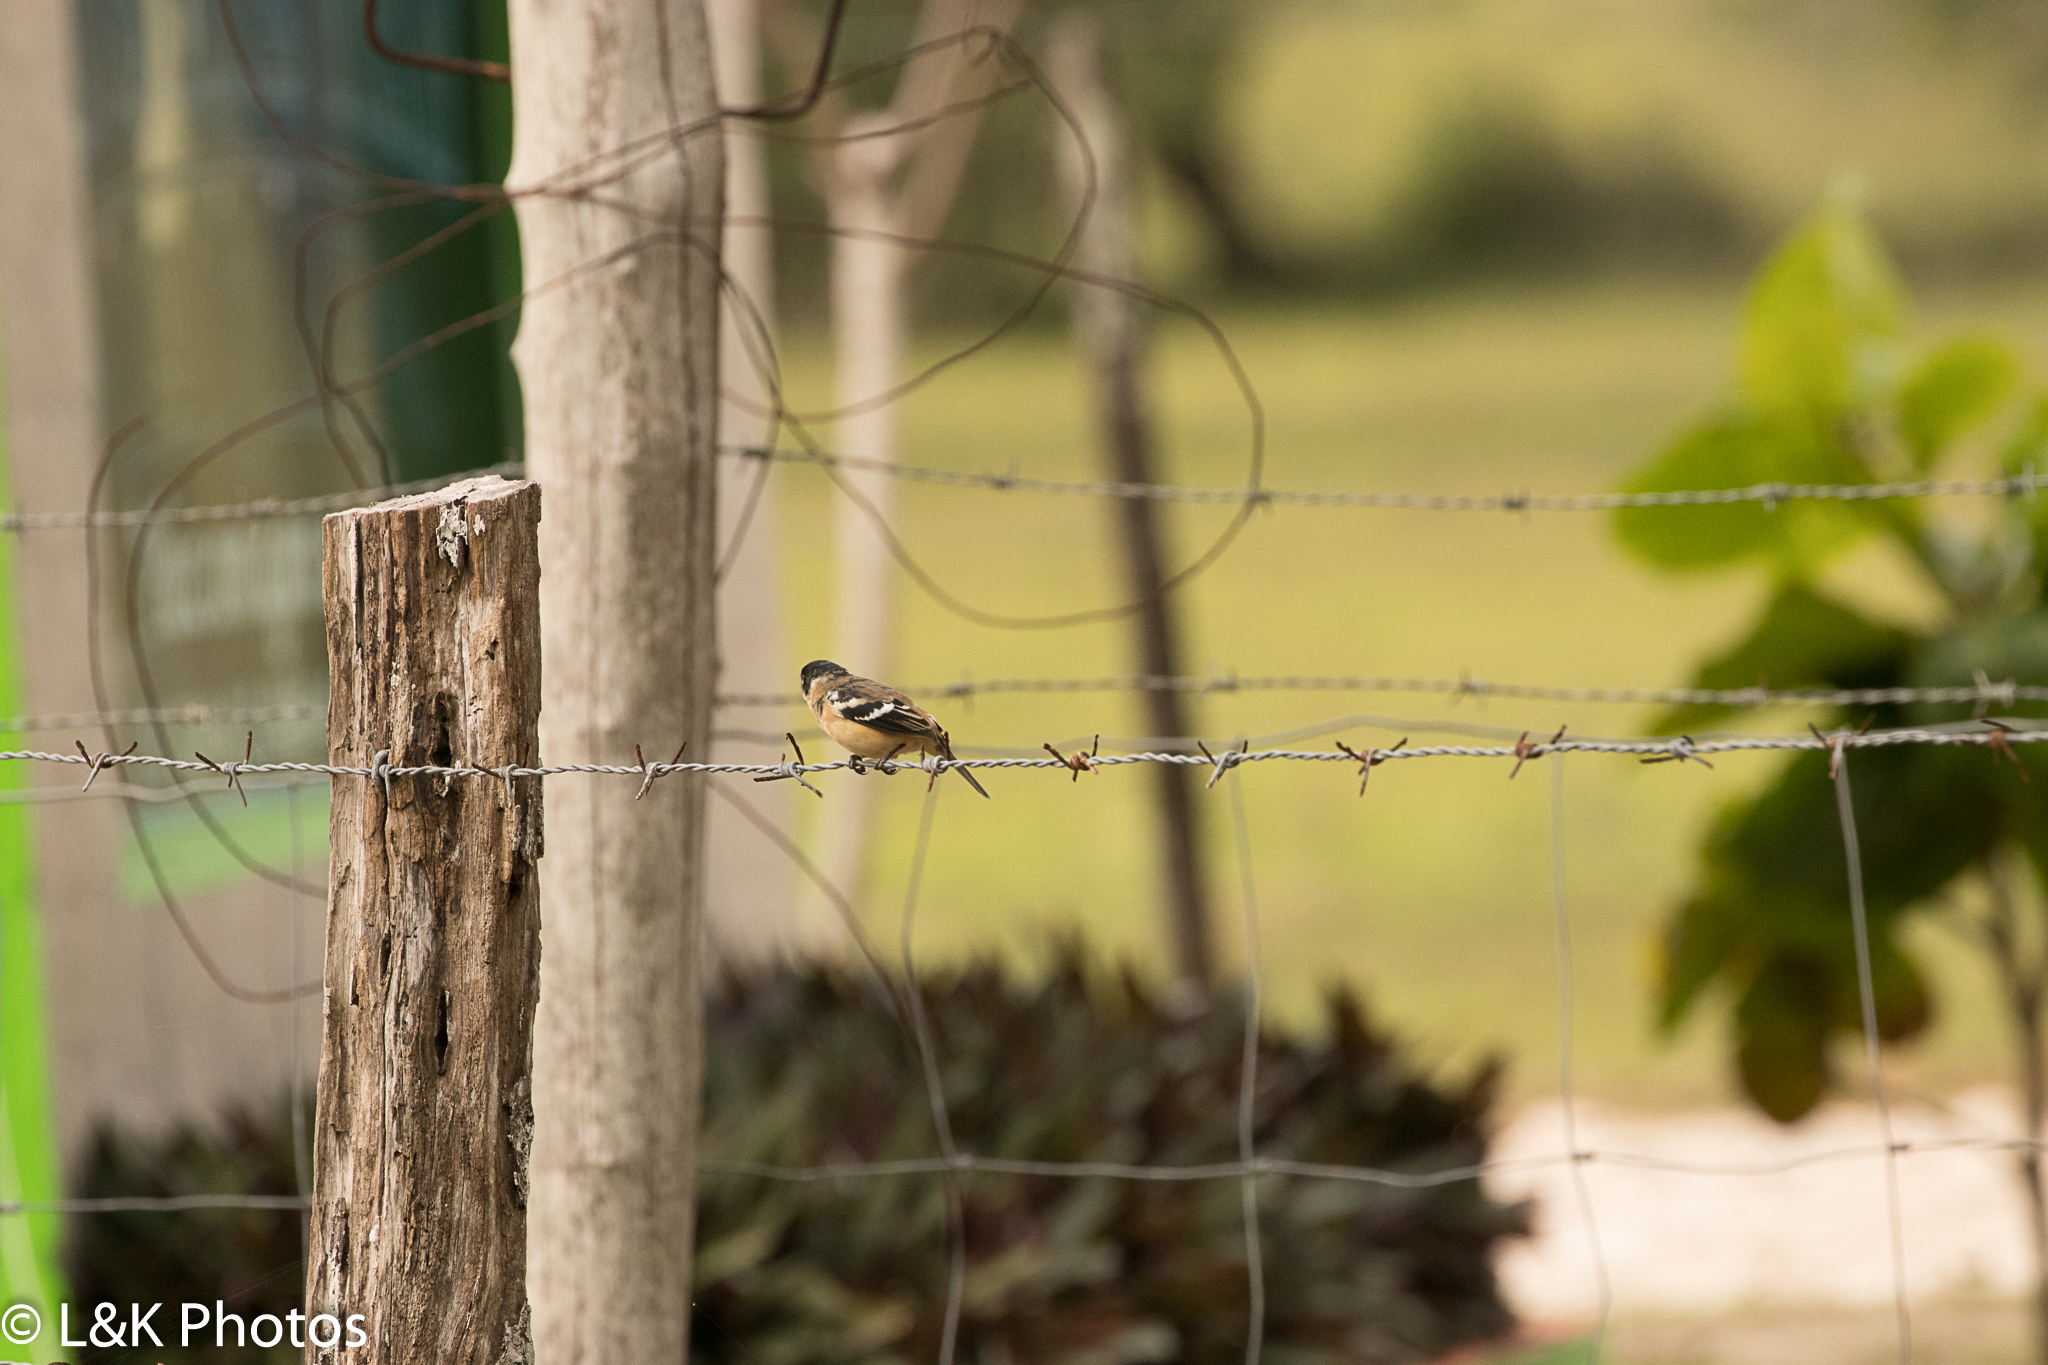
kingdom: Animalia
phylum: Chordata
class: Aves
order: Passeriformes
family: Thraupidae
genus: Sporophila
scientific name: Sporophila morelleti
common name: Morelet's seedeater
